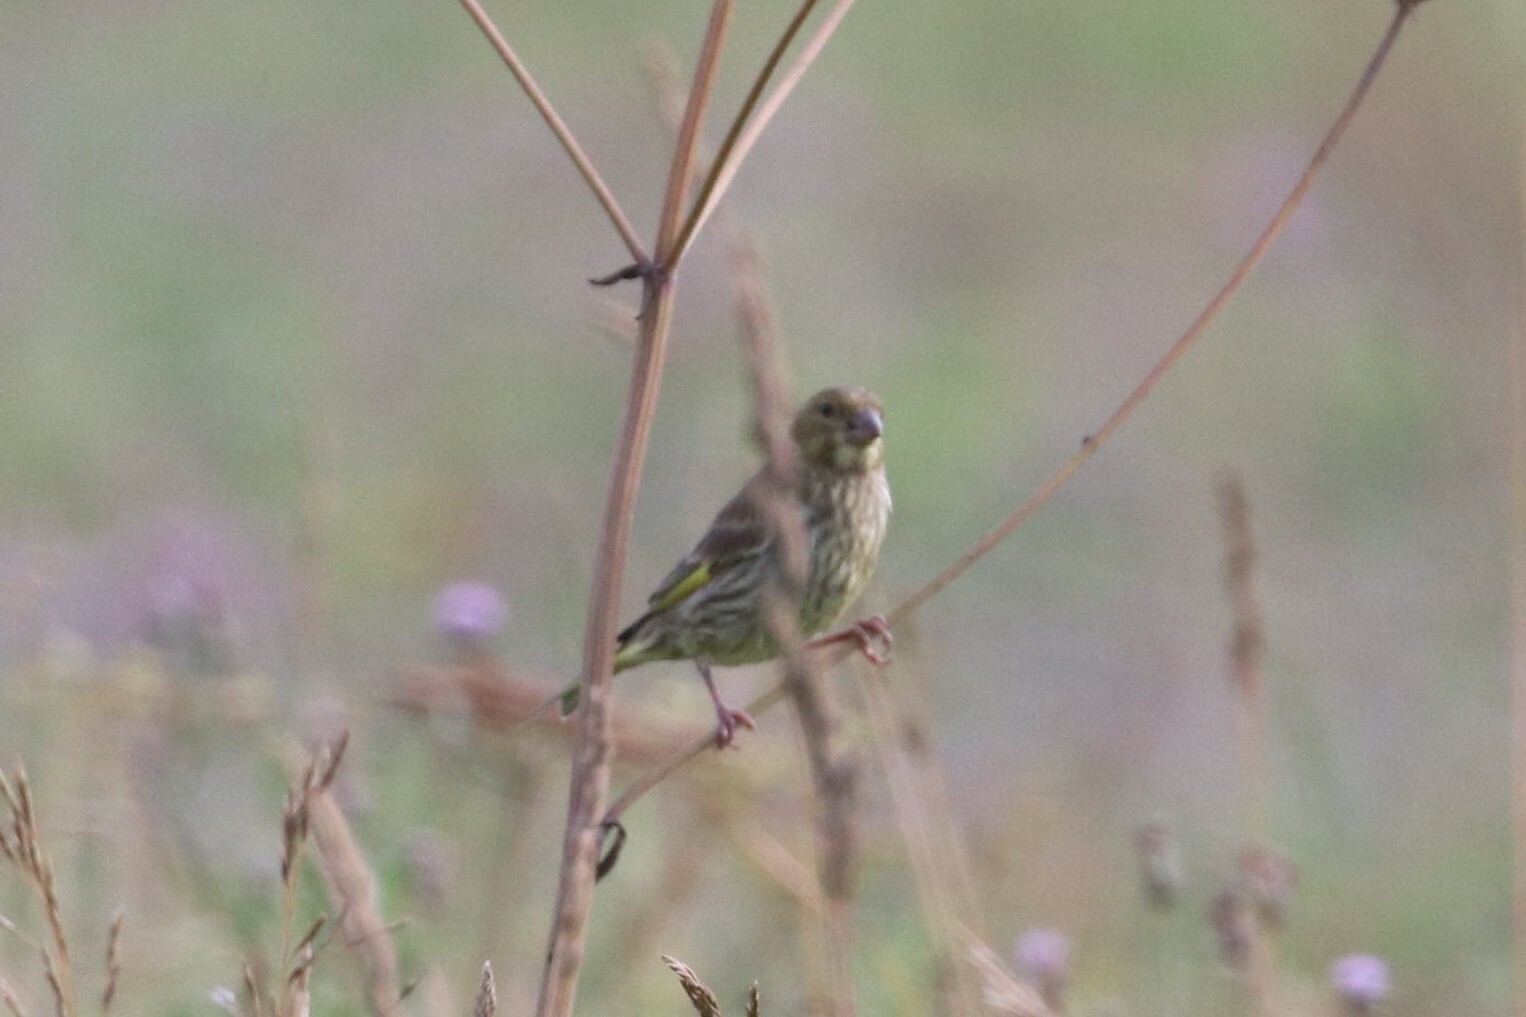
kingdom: Plantae
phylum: Tracheophyta
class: Liliopsida
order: Poales
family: Poaceae
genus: Chloris
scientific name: Chloris chloris
